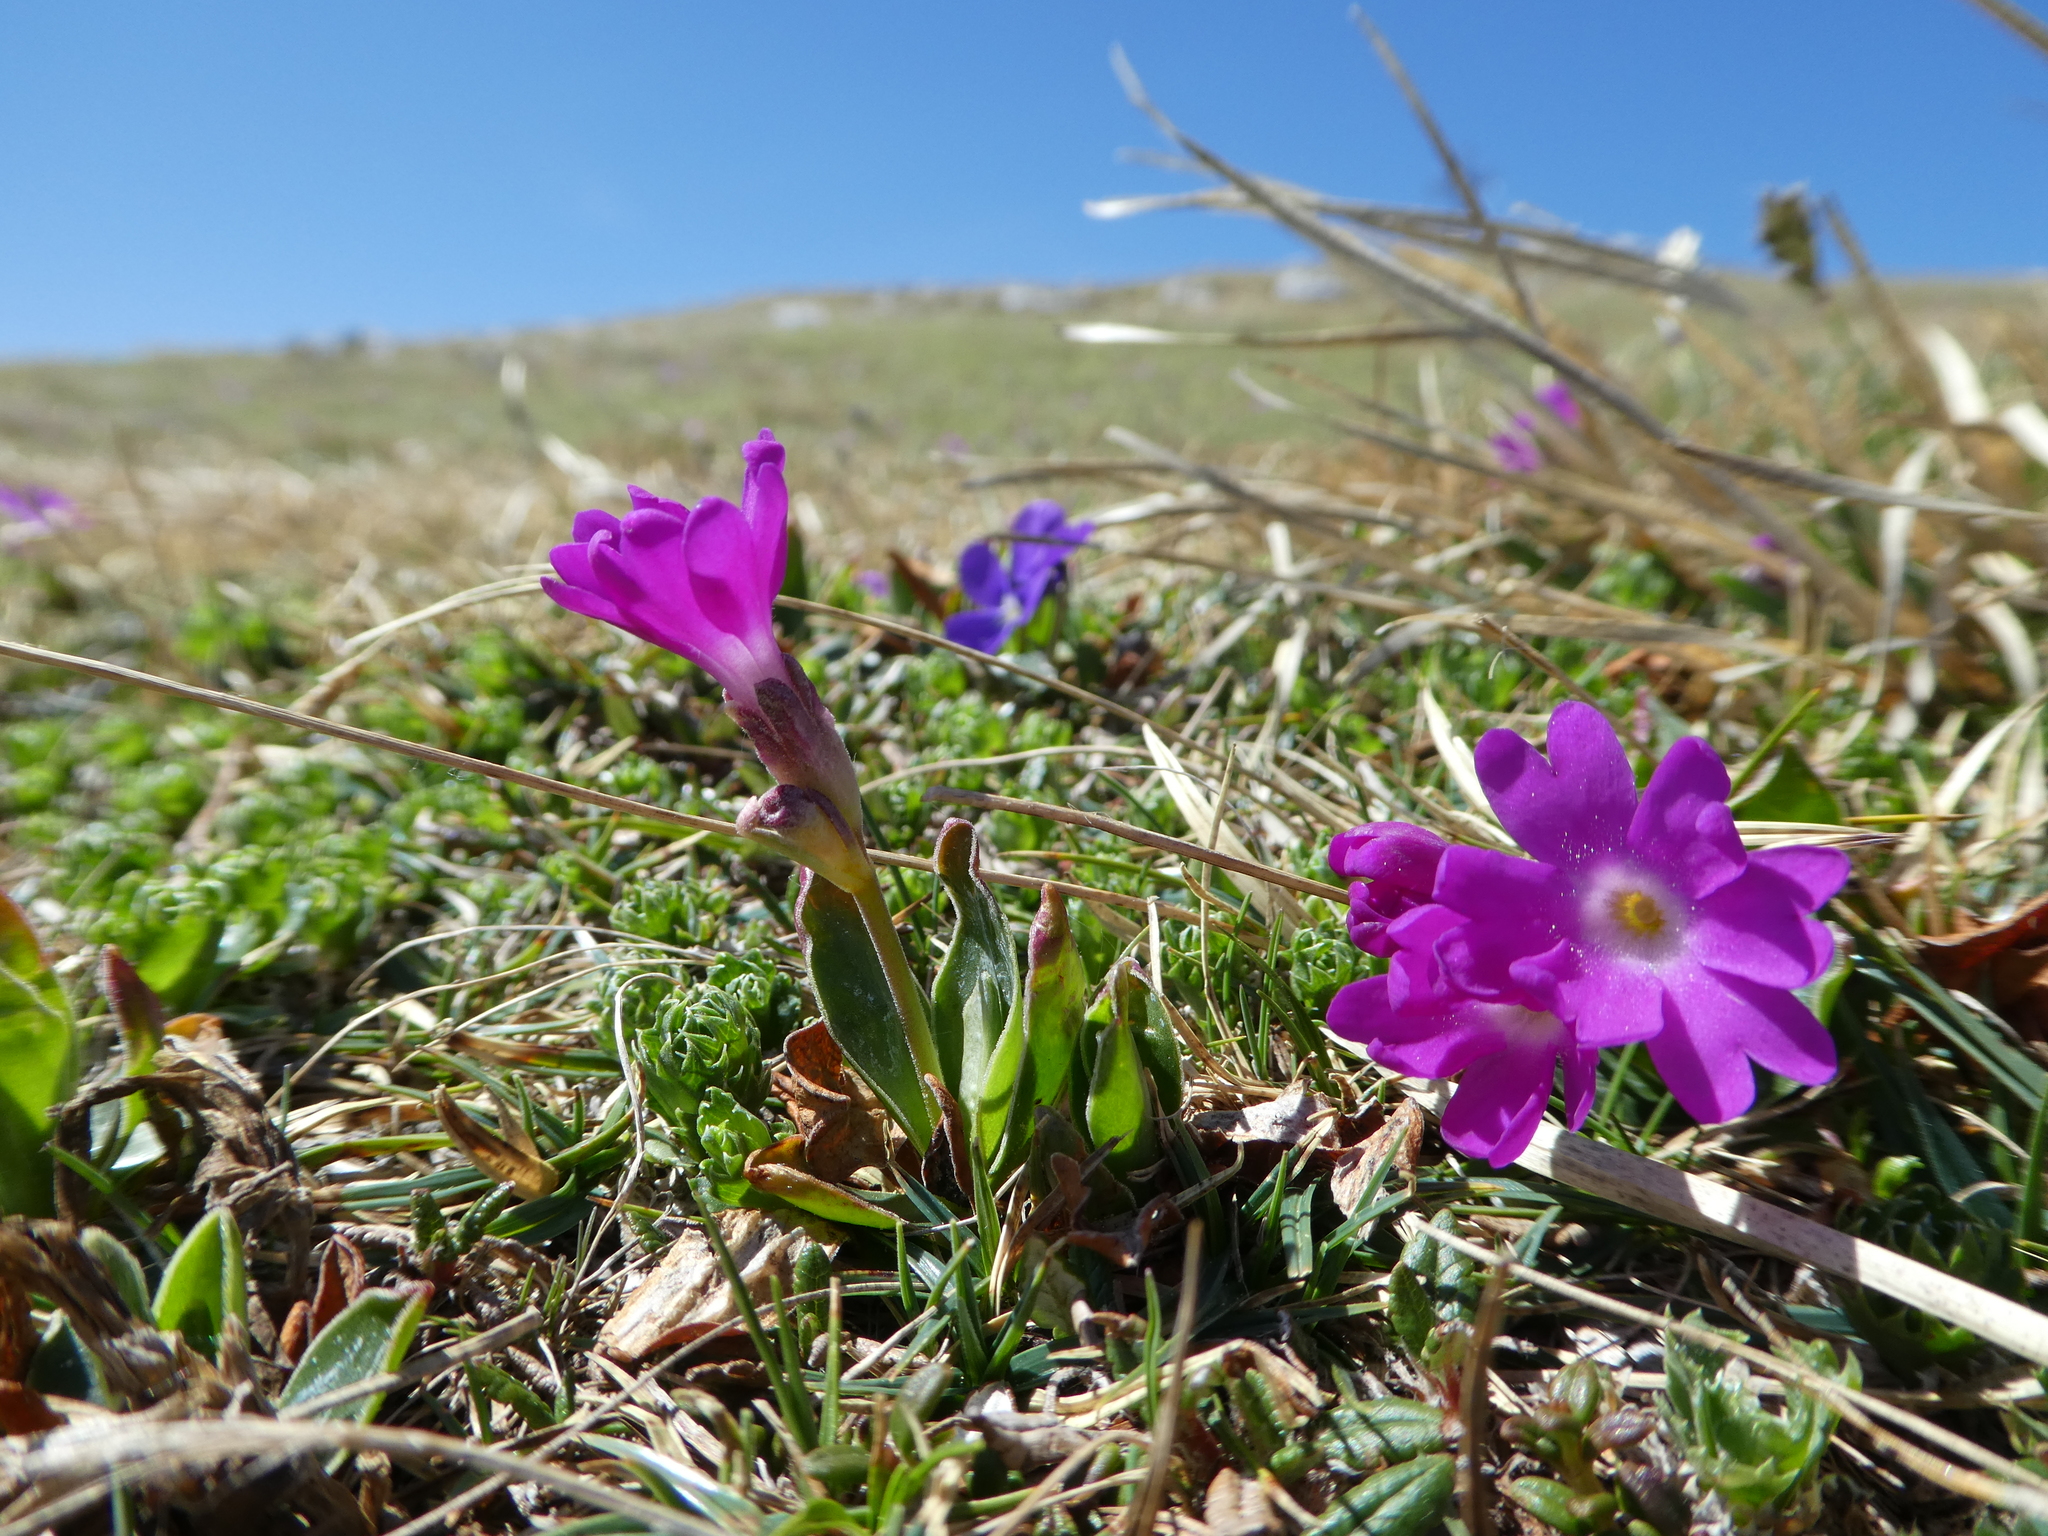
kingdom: Plantae
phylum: Tracheophyta
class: Magnoliopsida
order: Ericales
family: Primulaceae
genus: Primula
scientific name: Primula clusiana
